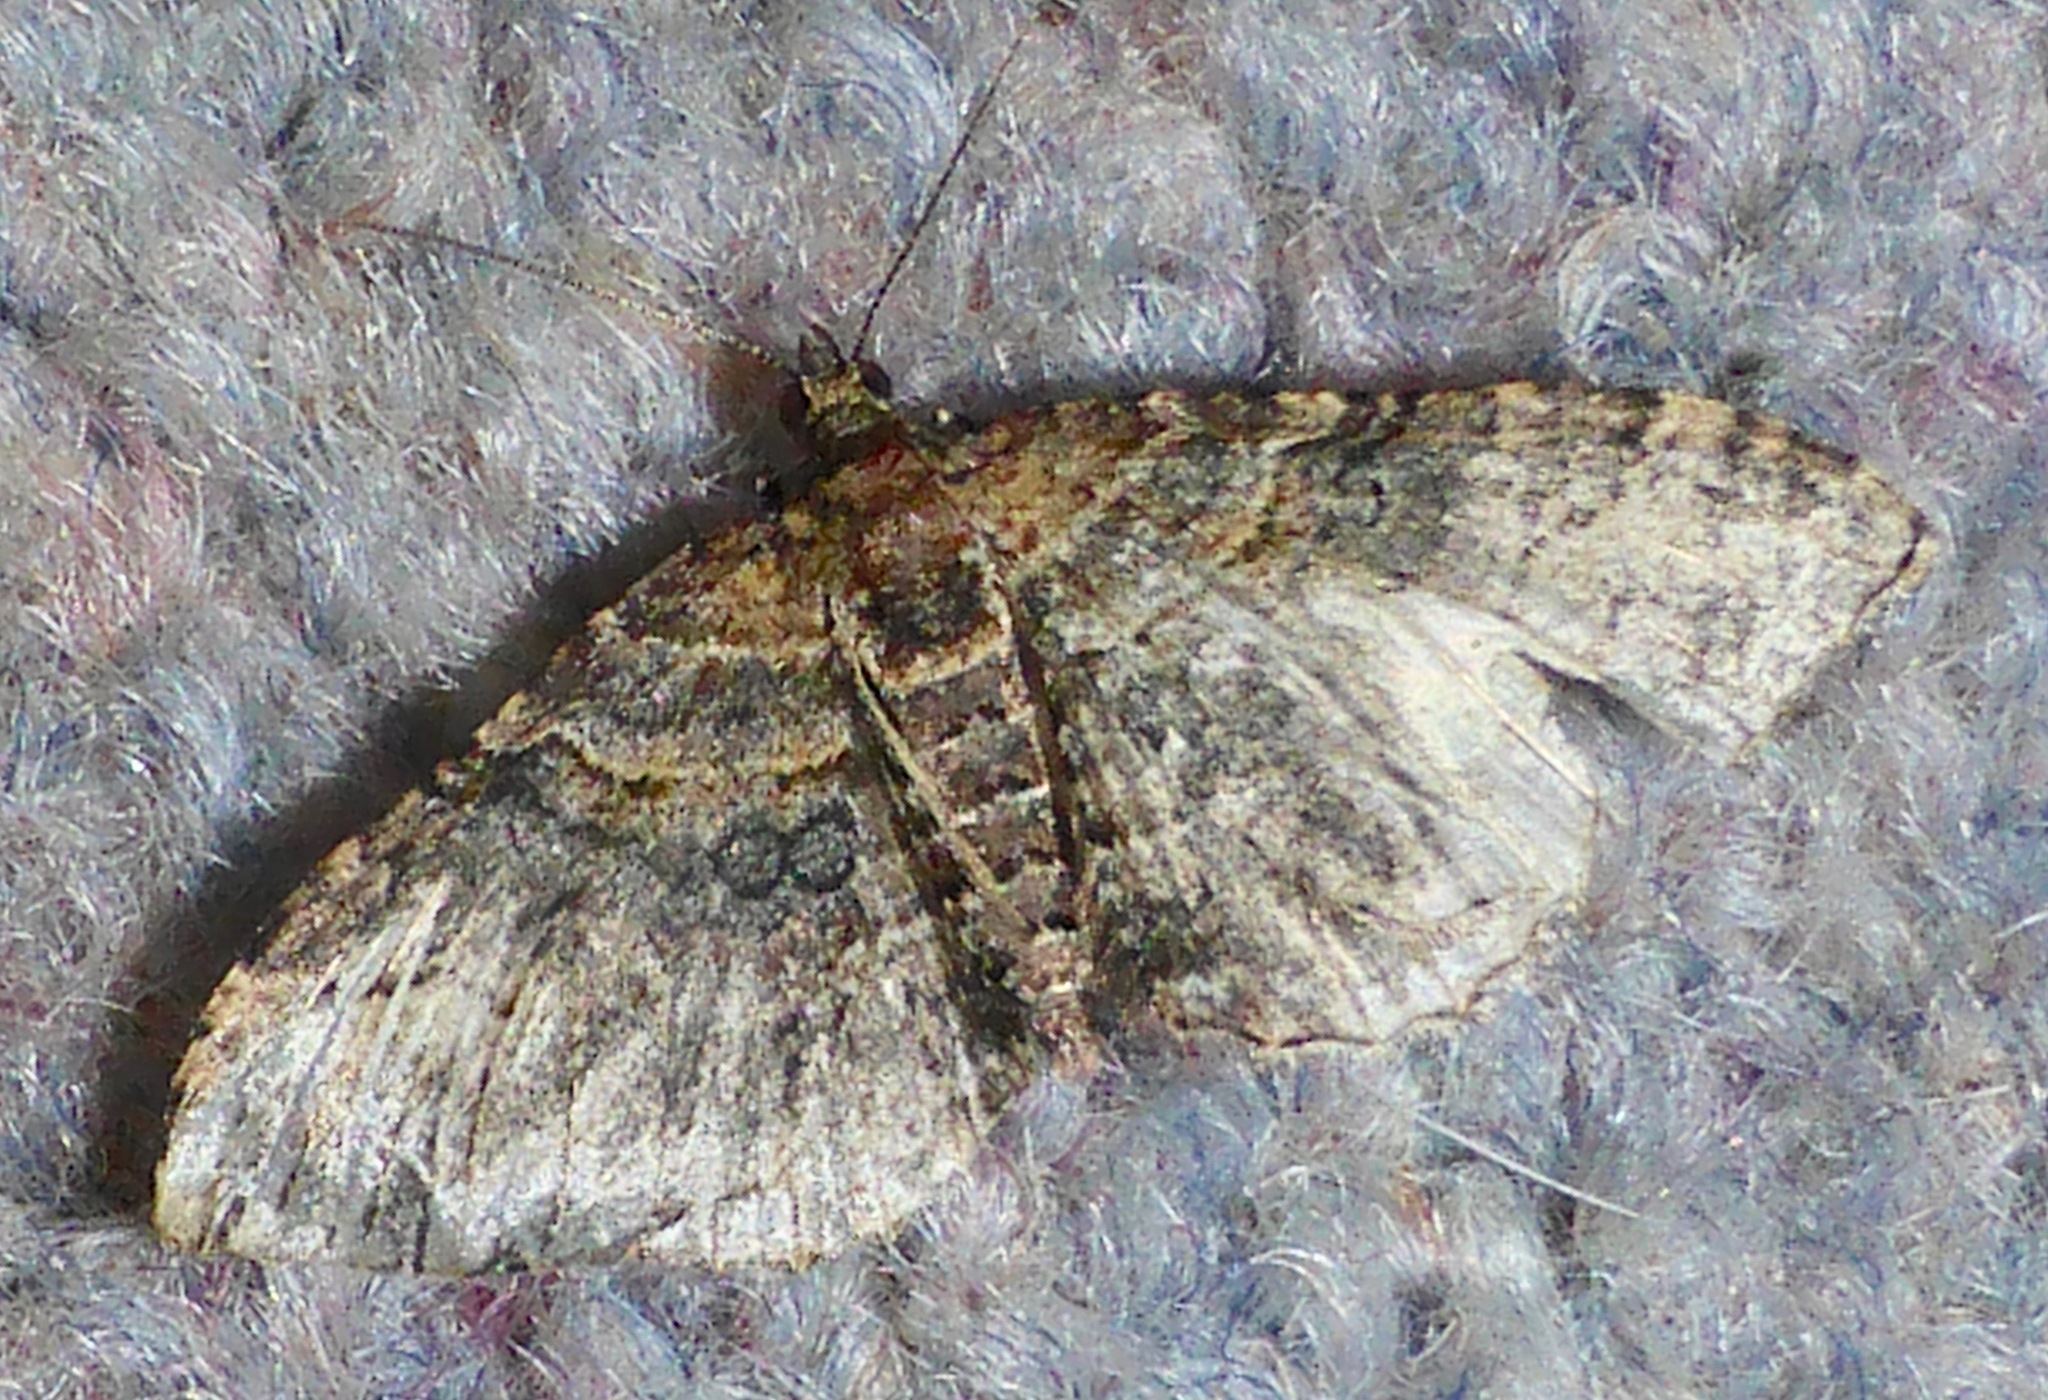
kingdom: Animalia
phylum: Arthropoda
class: Insecta
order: Lepidoptera
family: Geometridae
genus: Epyaxa
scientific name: Epyaxa lucidata
